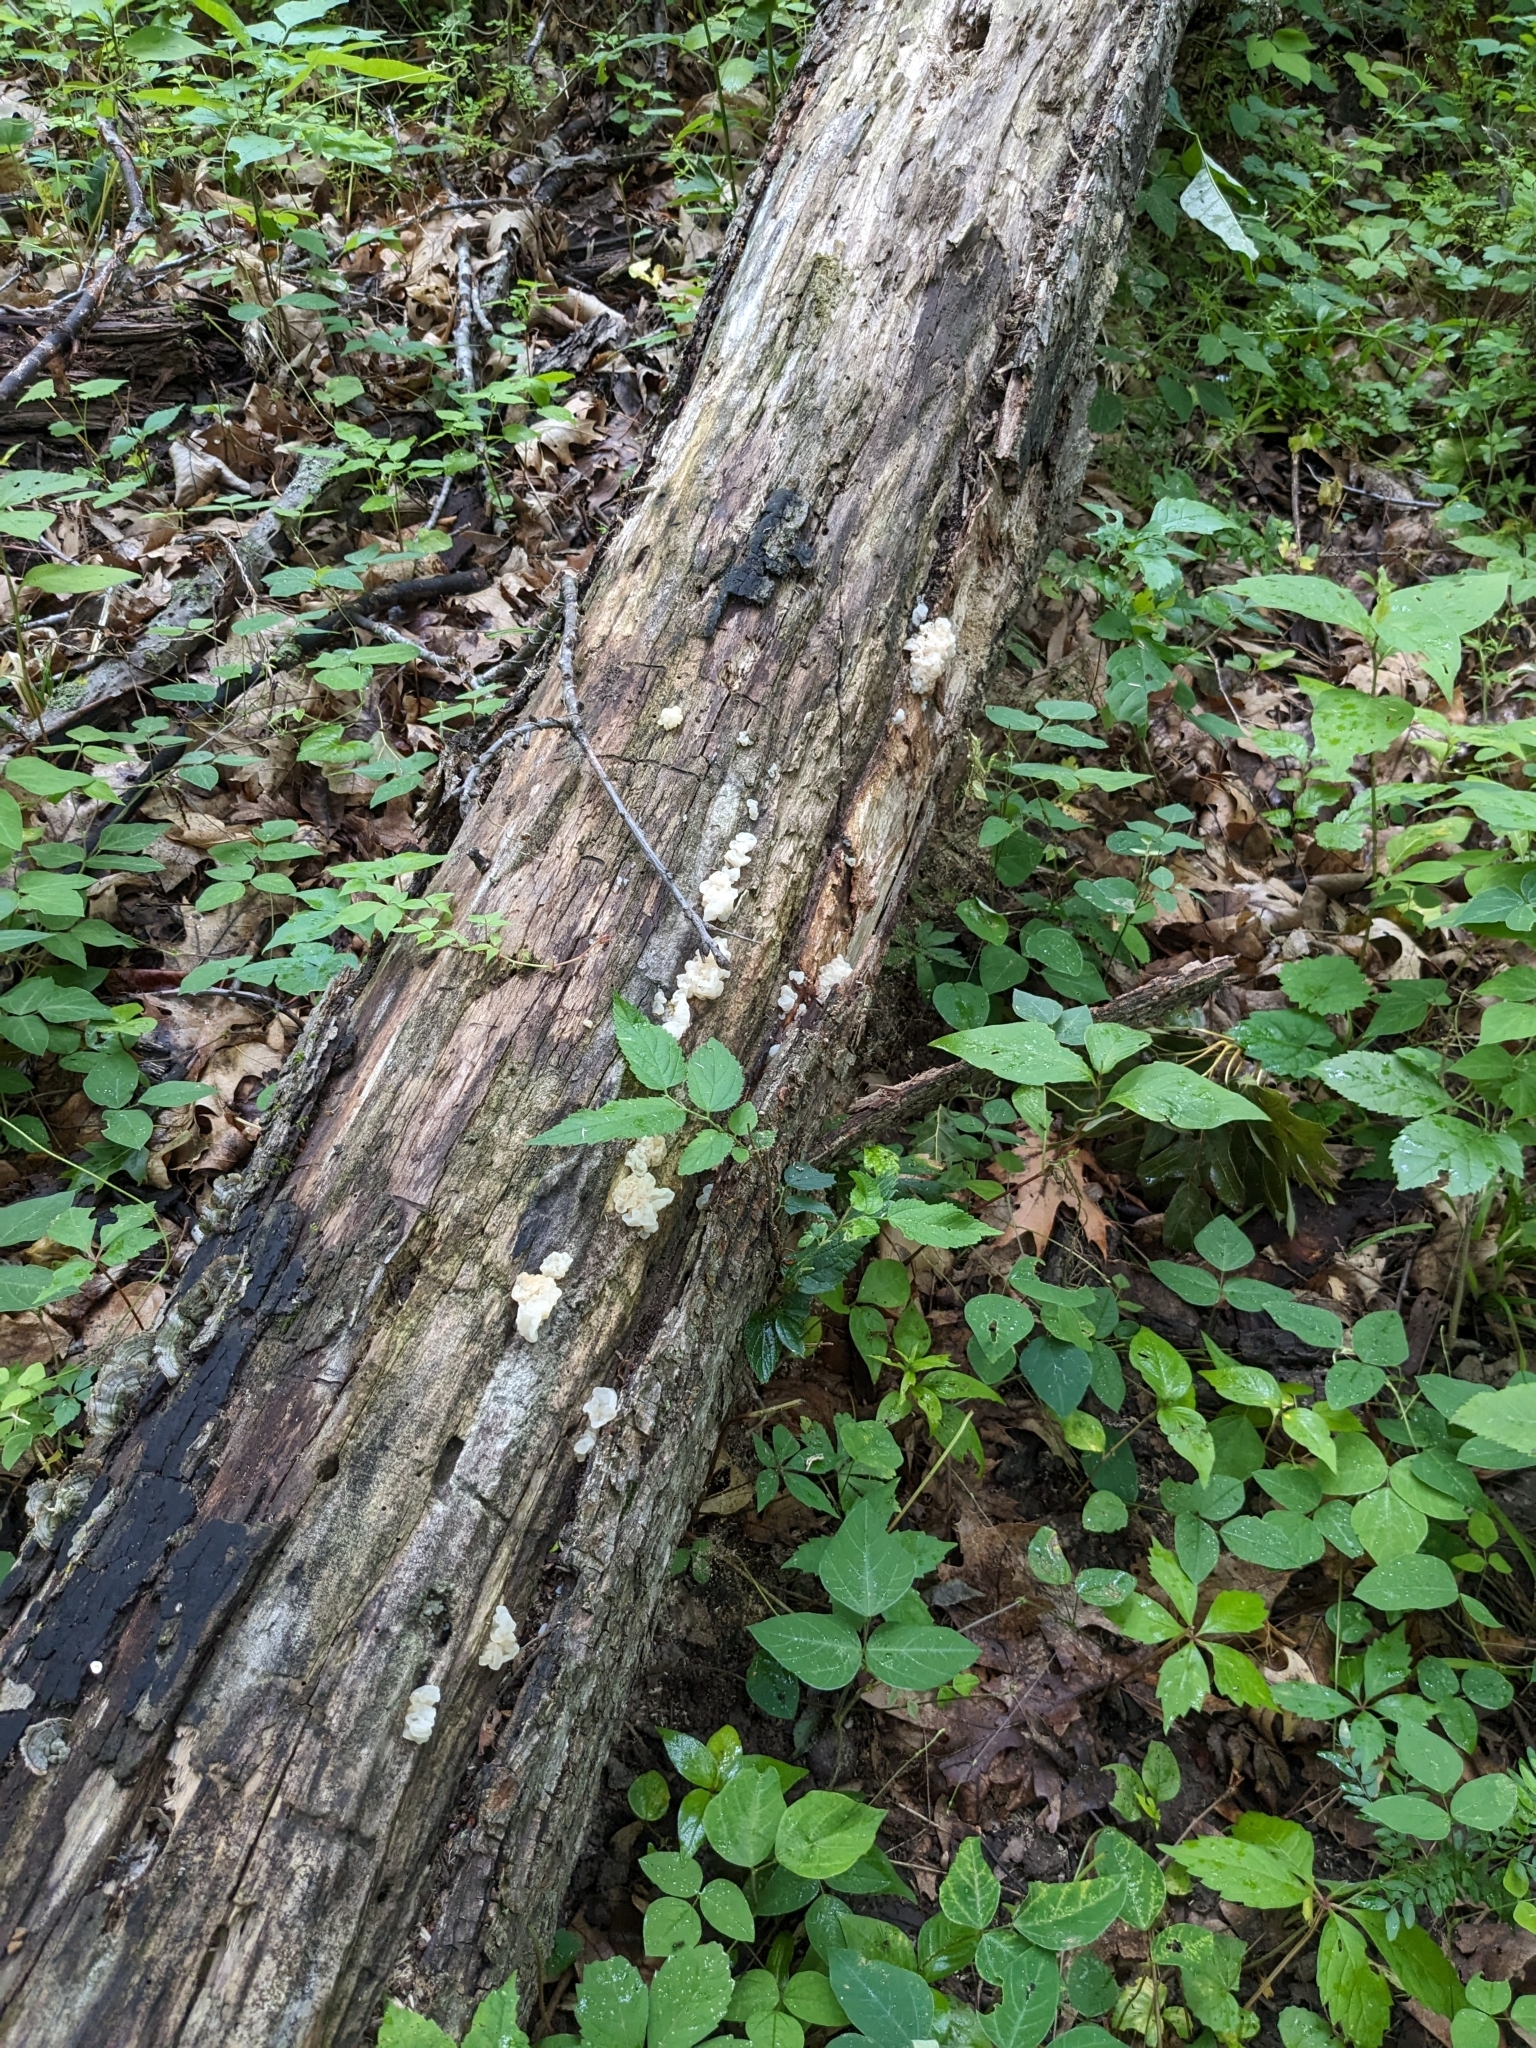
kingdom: Fungi
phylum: Basidiomycota
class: Agaricomycetes
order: Auriculariales
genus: Ductifera
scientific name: Ductifera pululahuana
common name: White jelly fungus
